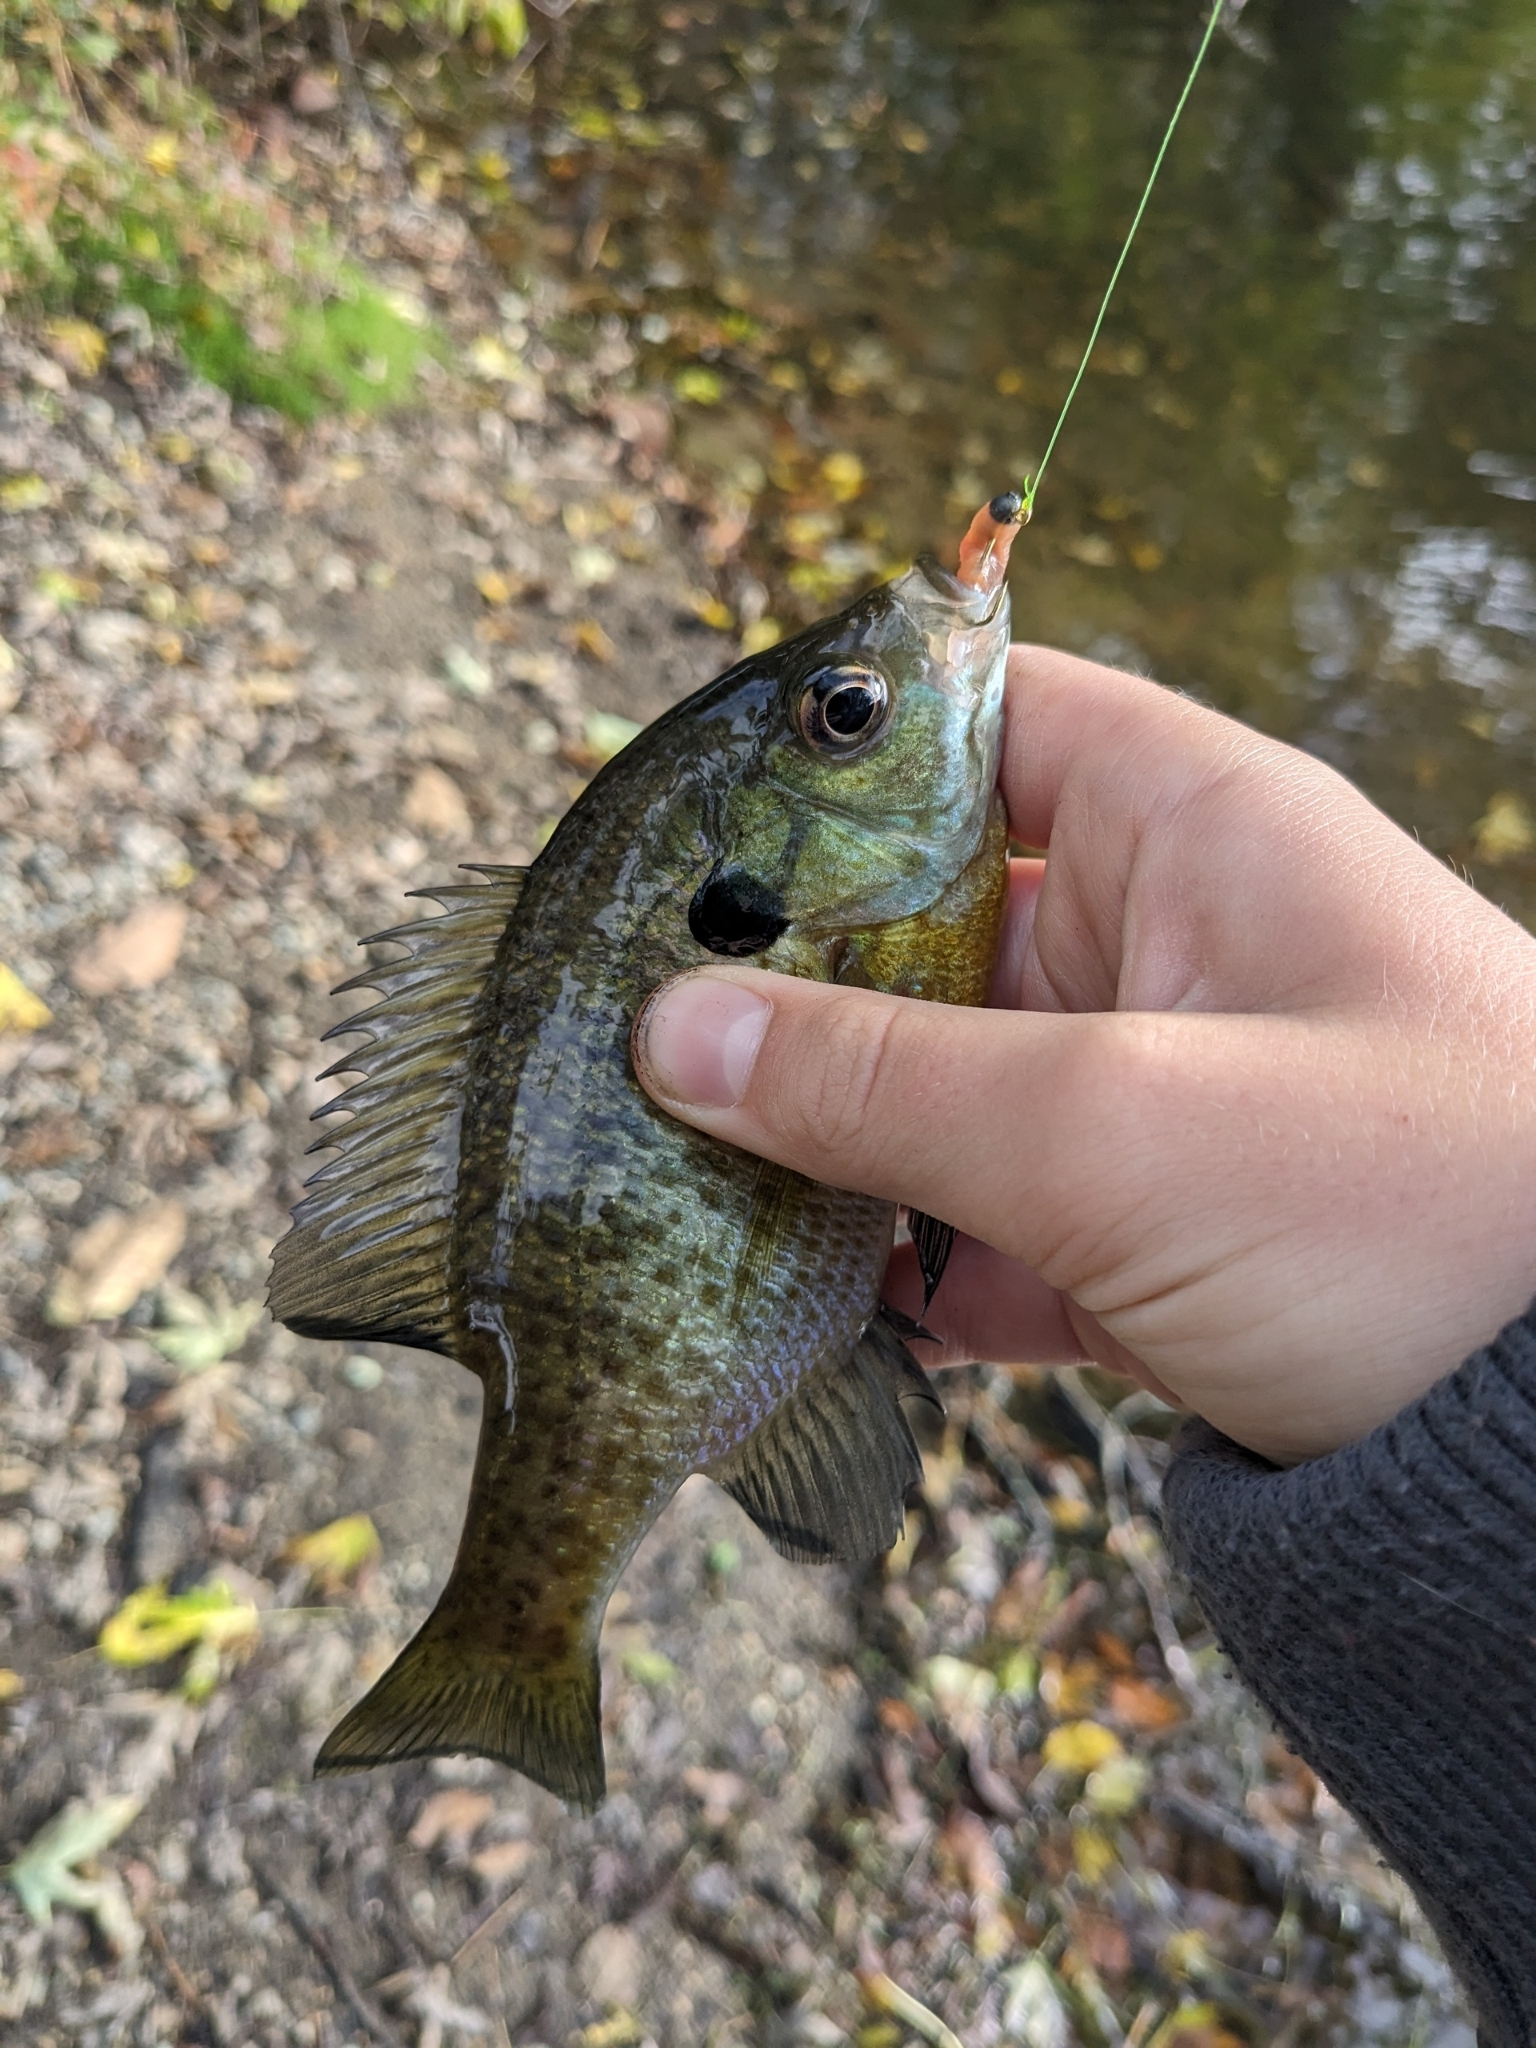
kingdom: Animalia
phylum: Chordata
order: Perciformes
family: Centrarchidae
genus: Lepomis
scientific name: Lepomis macrochirus
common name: Bluegill
